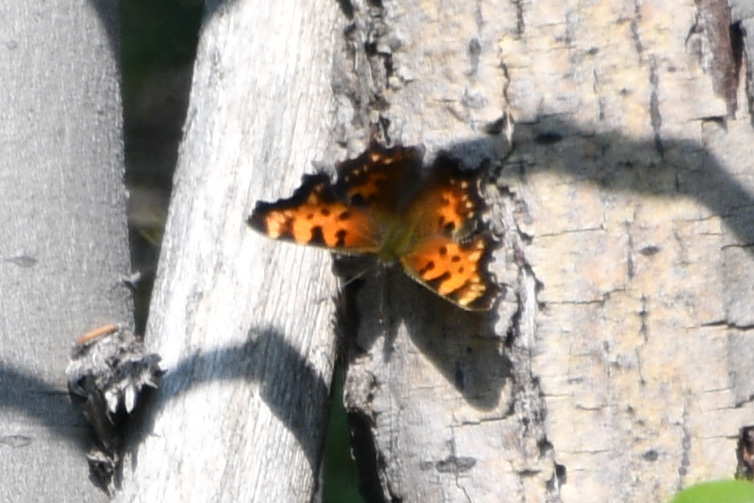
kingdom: Animalia
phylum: Arthropoda
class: Insecta
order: Lepidoptera
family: Nymphalidae
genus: Polygonia
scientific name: Polygonia faunus
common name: Green comma
